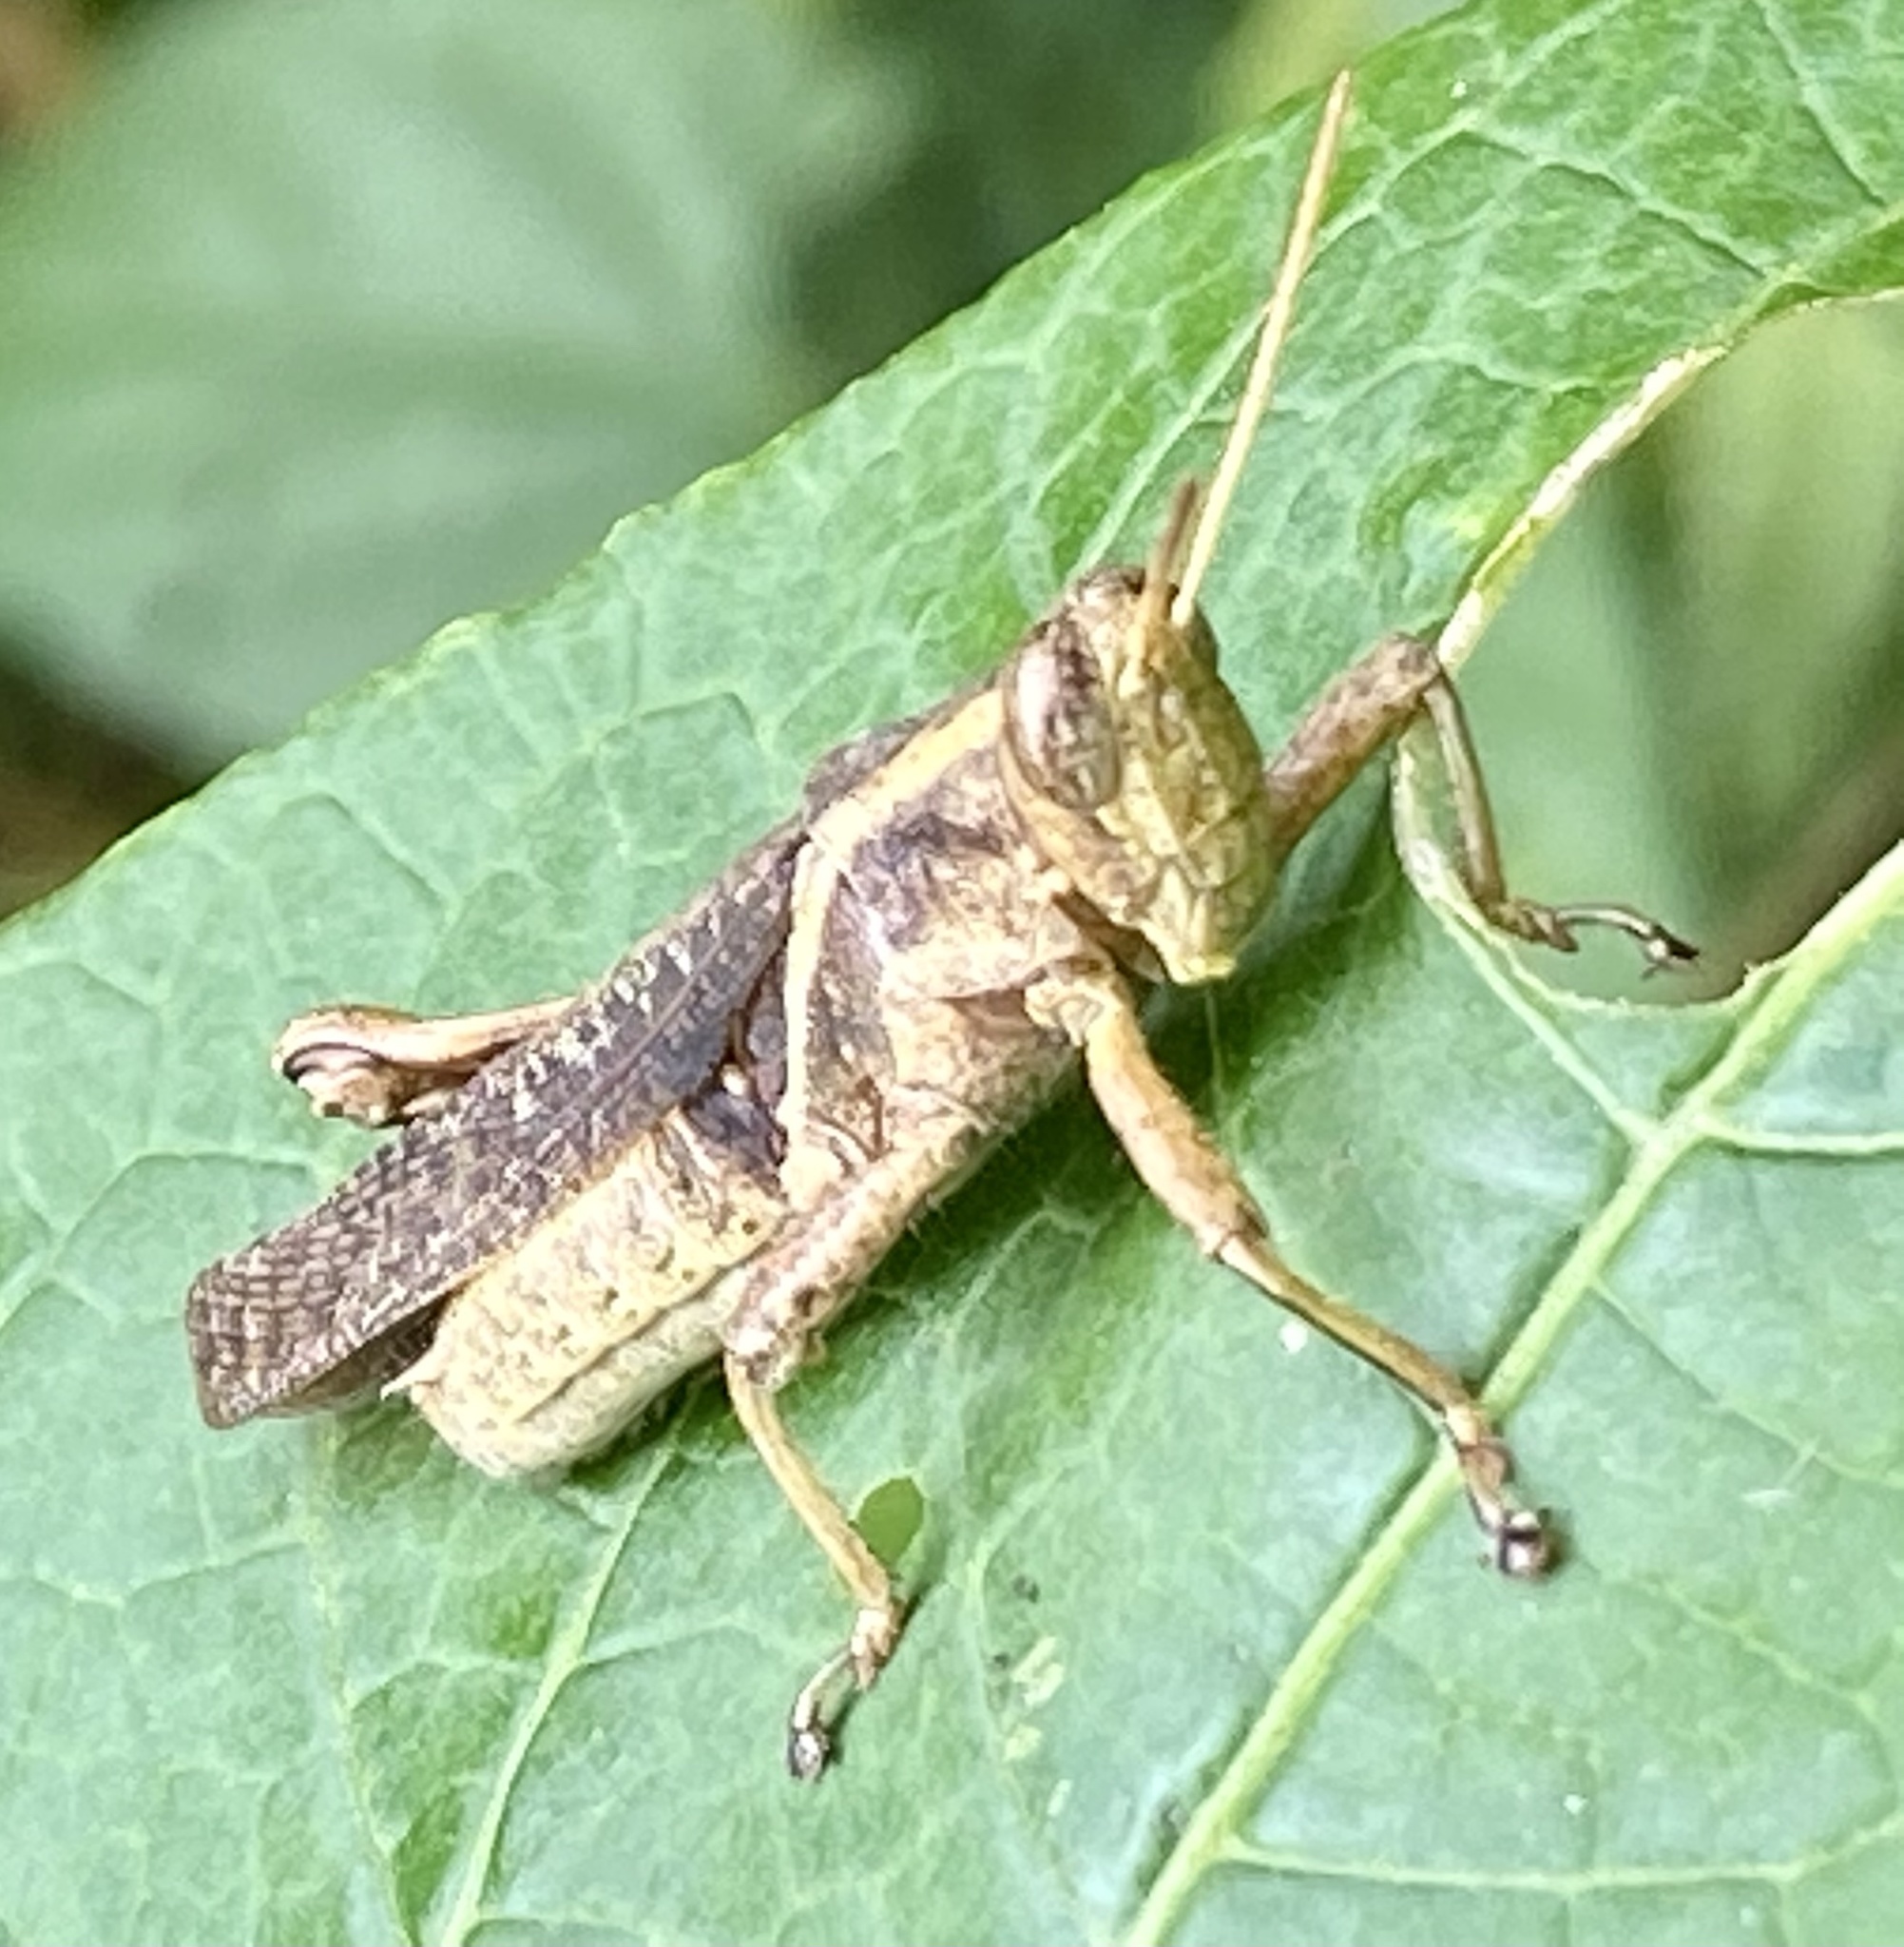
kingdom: Animalia
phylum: Arthropoda
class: Insecta
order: Orthoptera
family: Acrididae
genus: Abracris
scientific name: Abracris flavolineata
